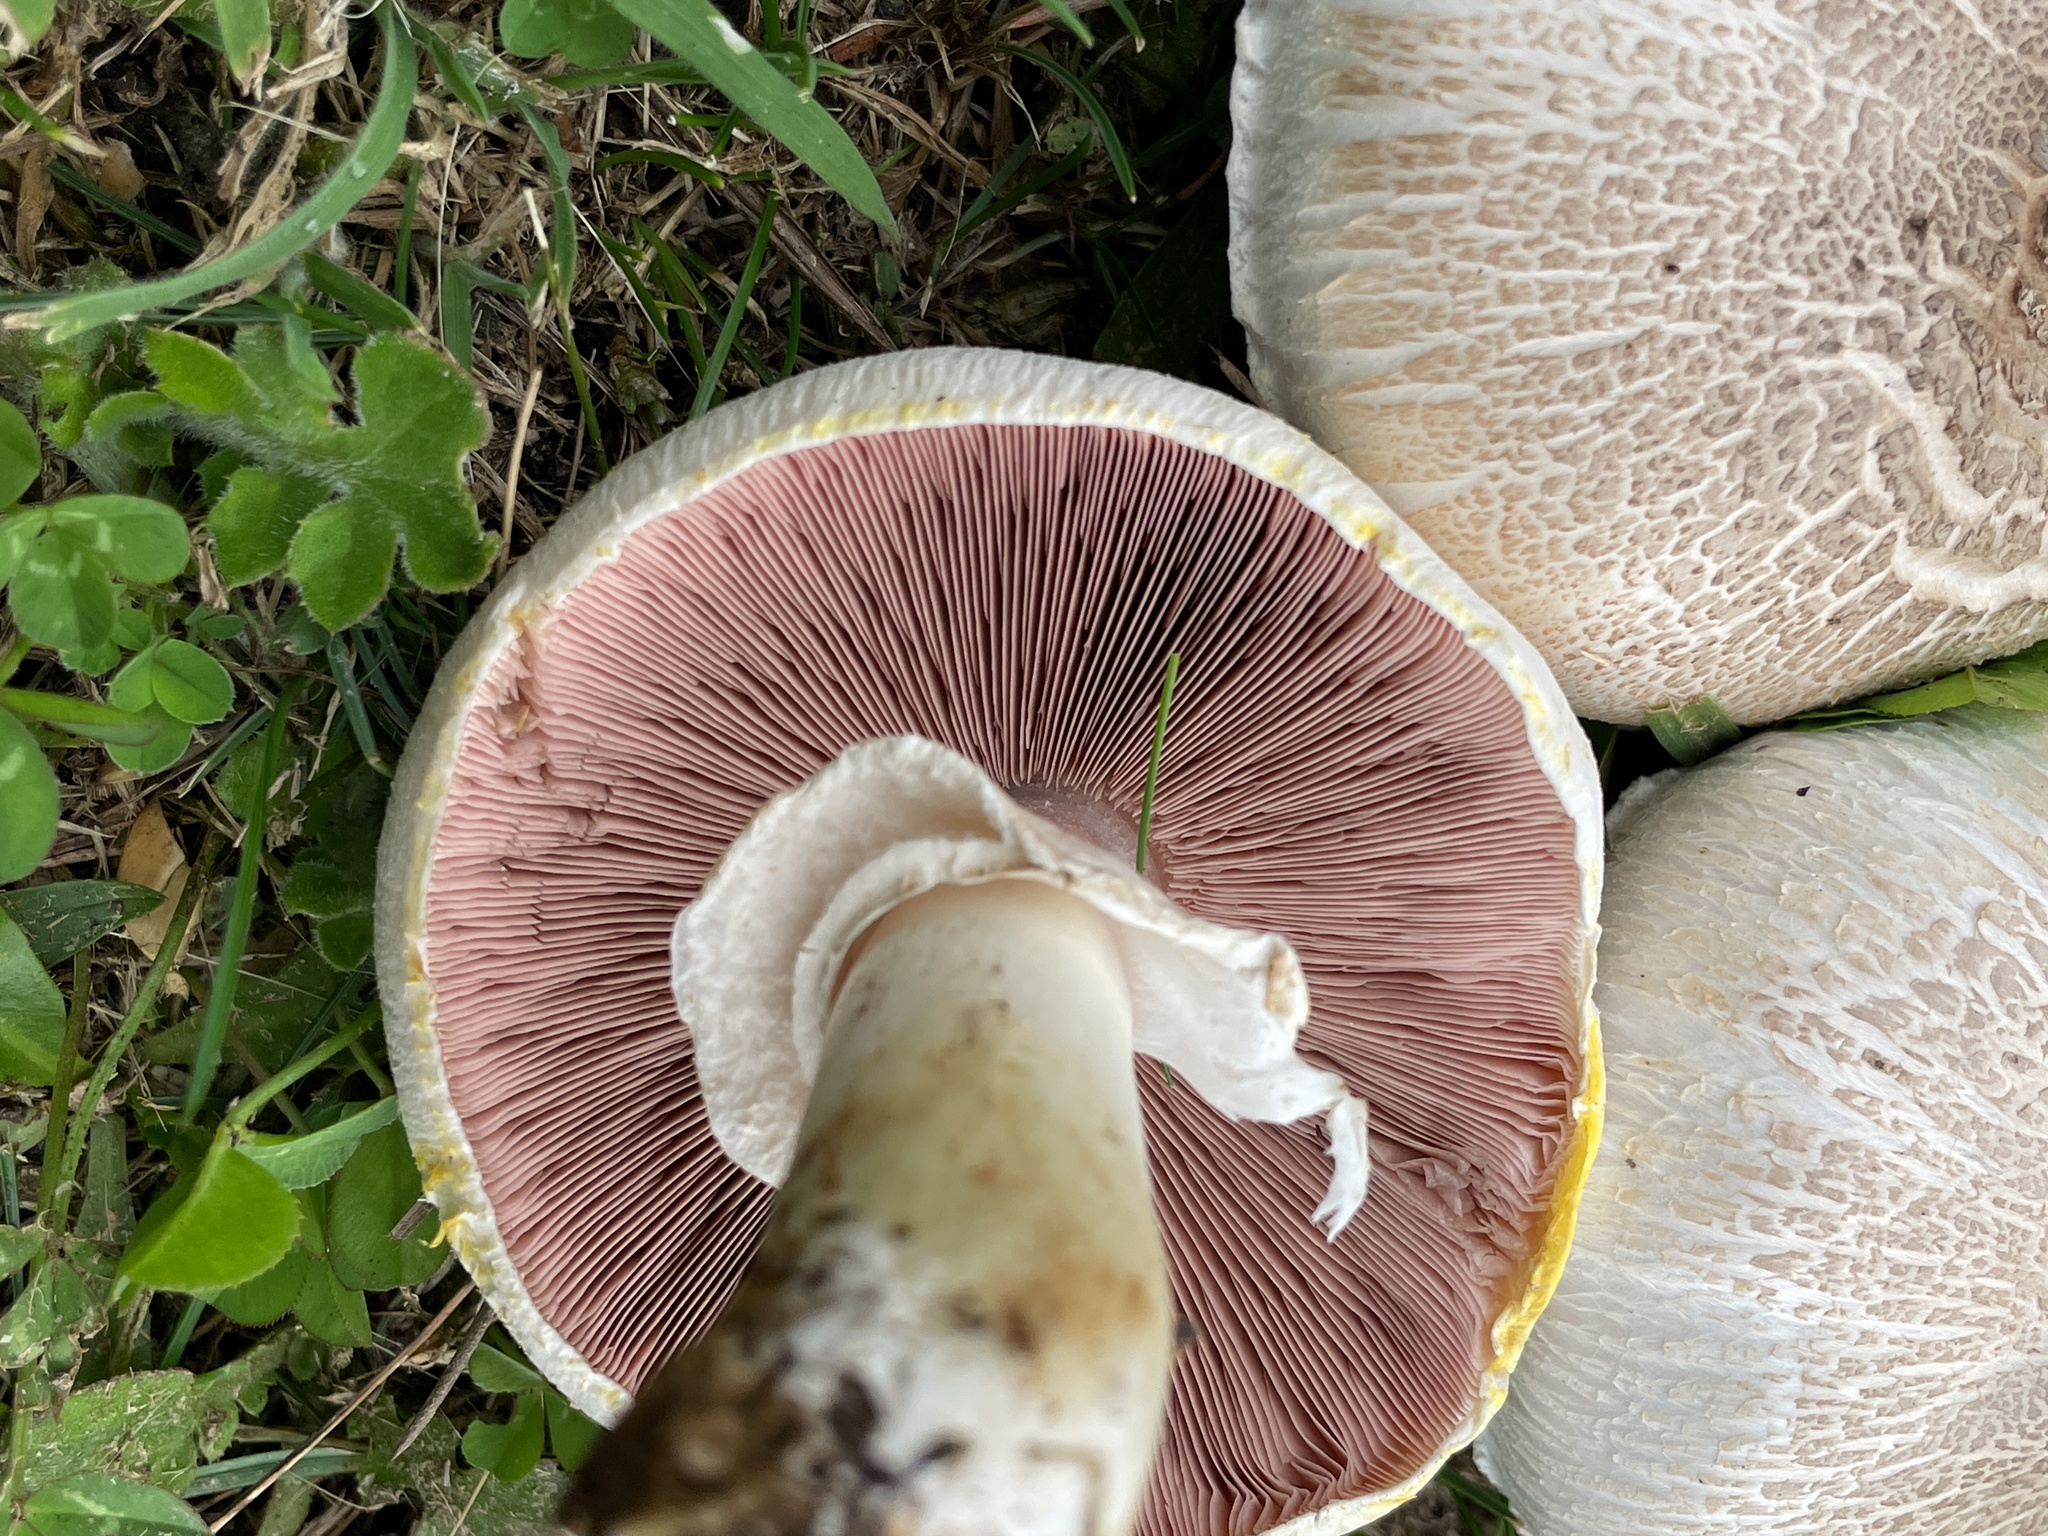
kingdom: Fungi
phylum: Basidiomycota
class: Agaricomycetes
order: Agaricales
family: Agaricaceae
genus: Agaricus
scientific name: Agaricus xanthodermus
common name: Yellow stainer
